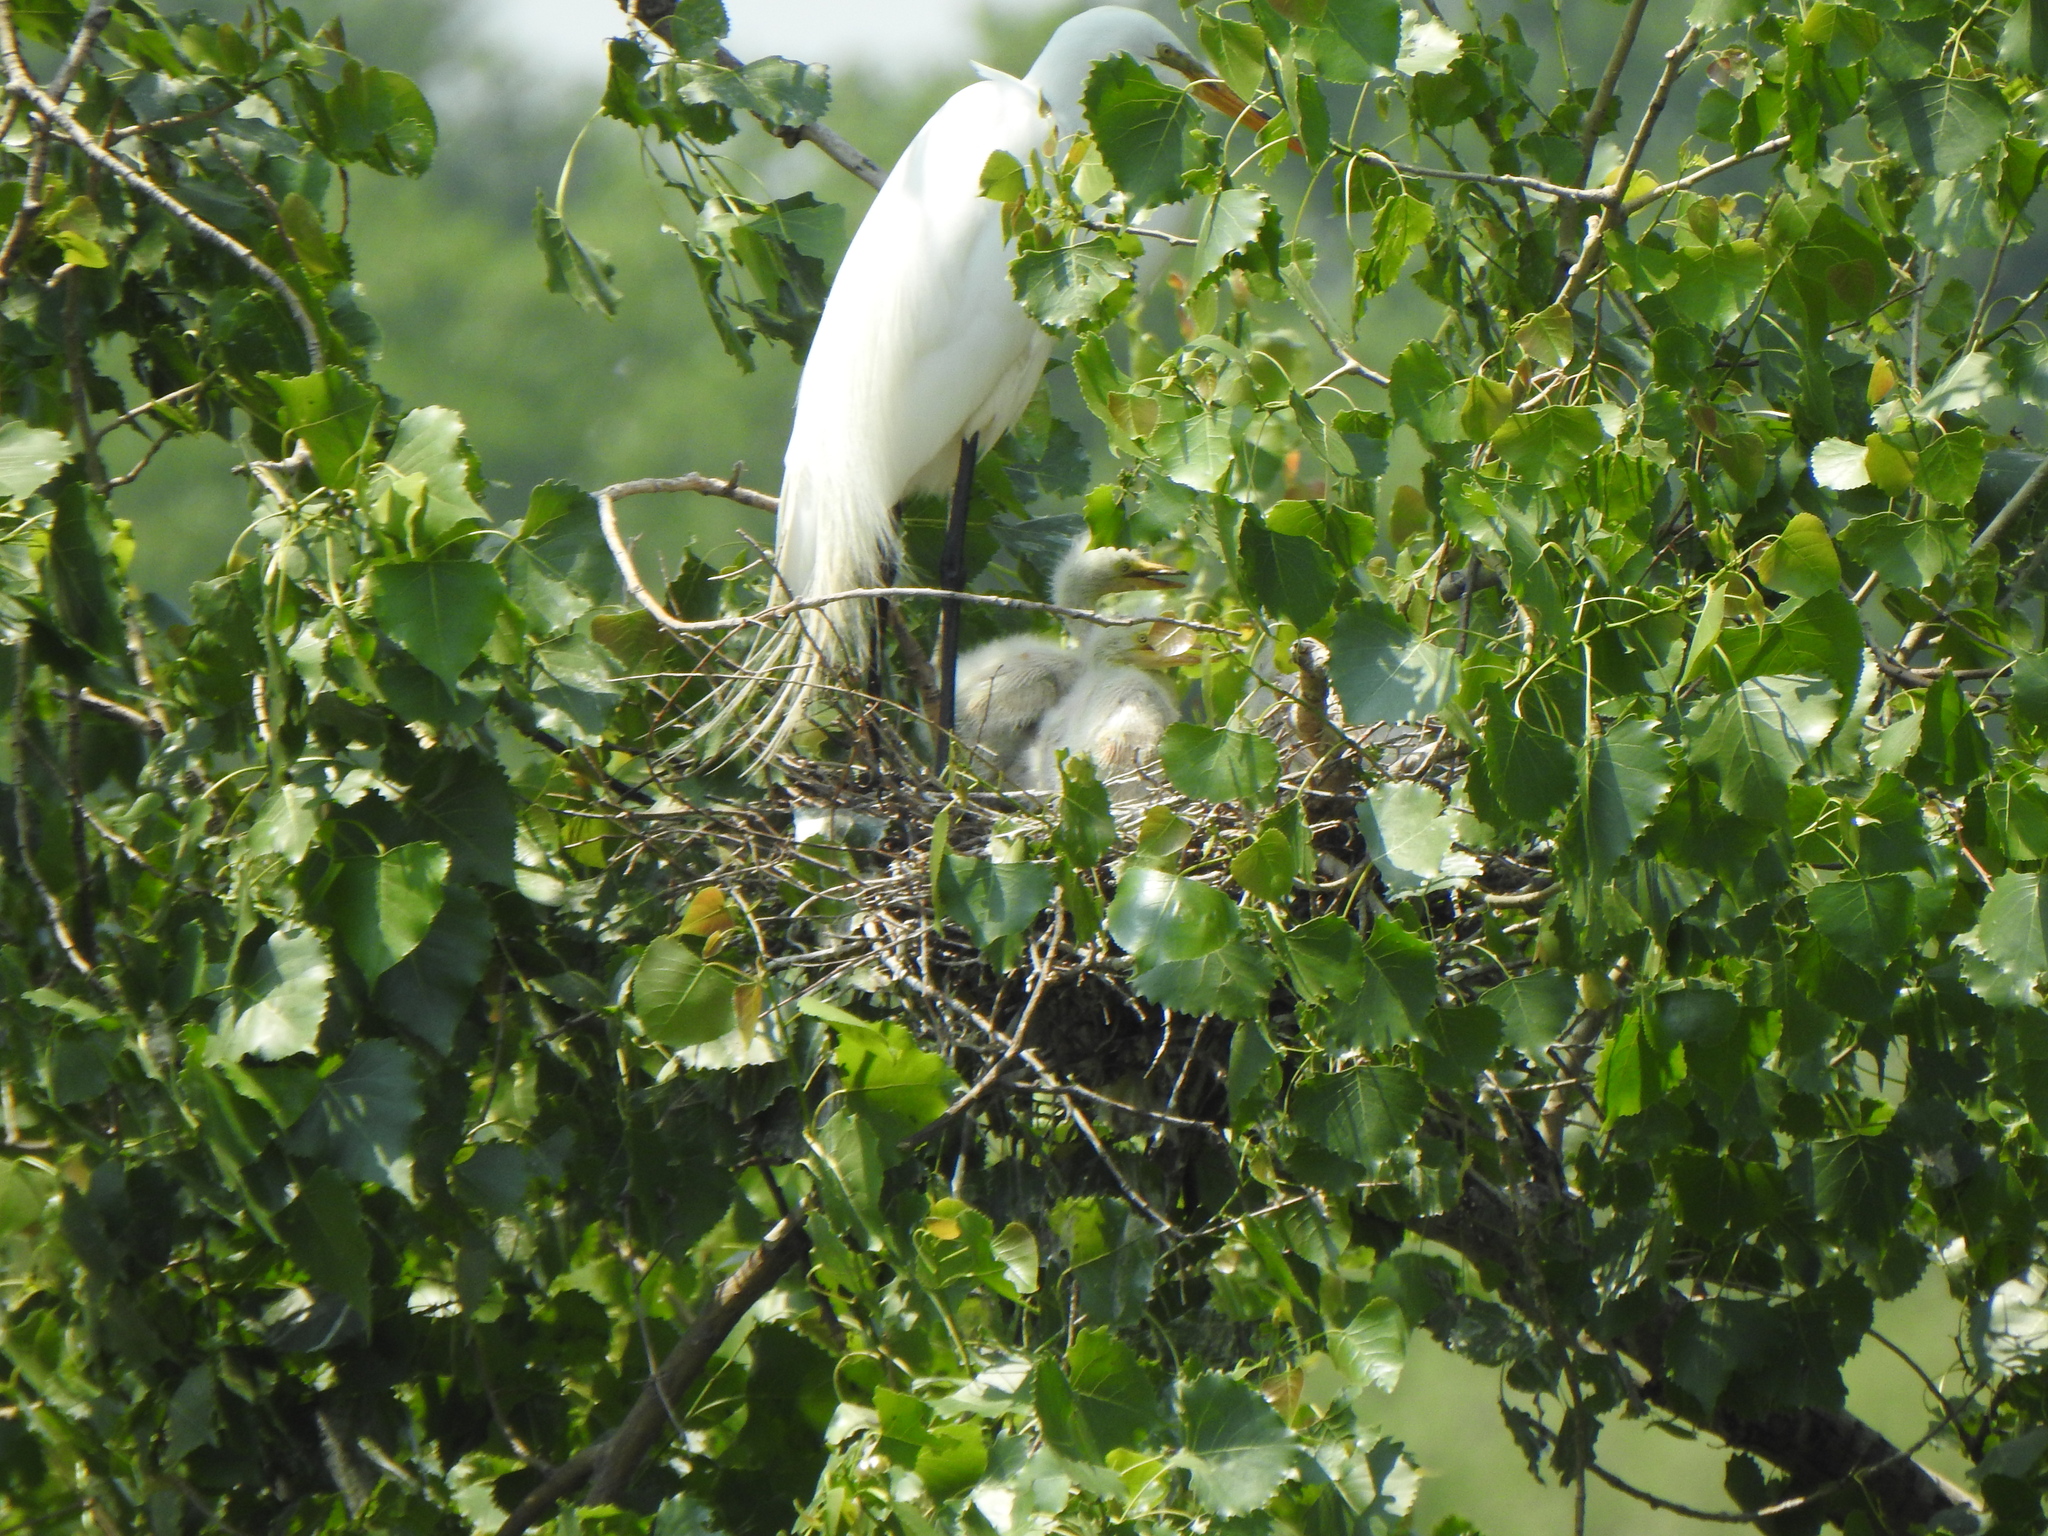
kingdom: Animalia
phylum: Chordata
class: Aves
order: Pelecaniformes
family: Ardeidae
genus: Ardea
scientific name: Ardea alba
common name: Great egret
